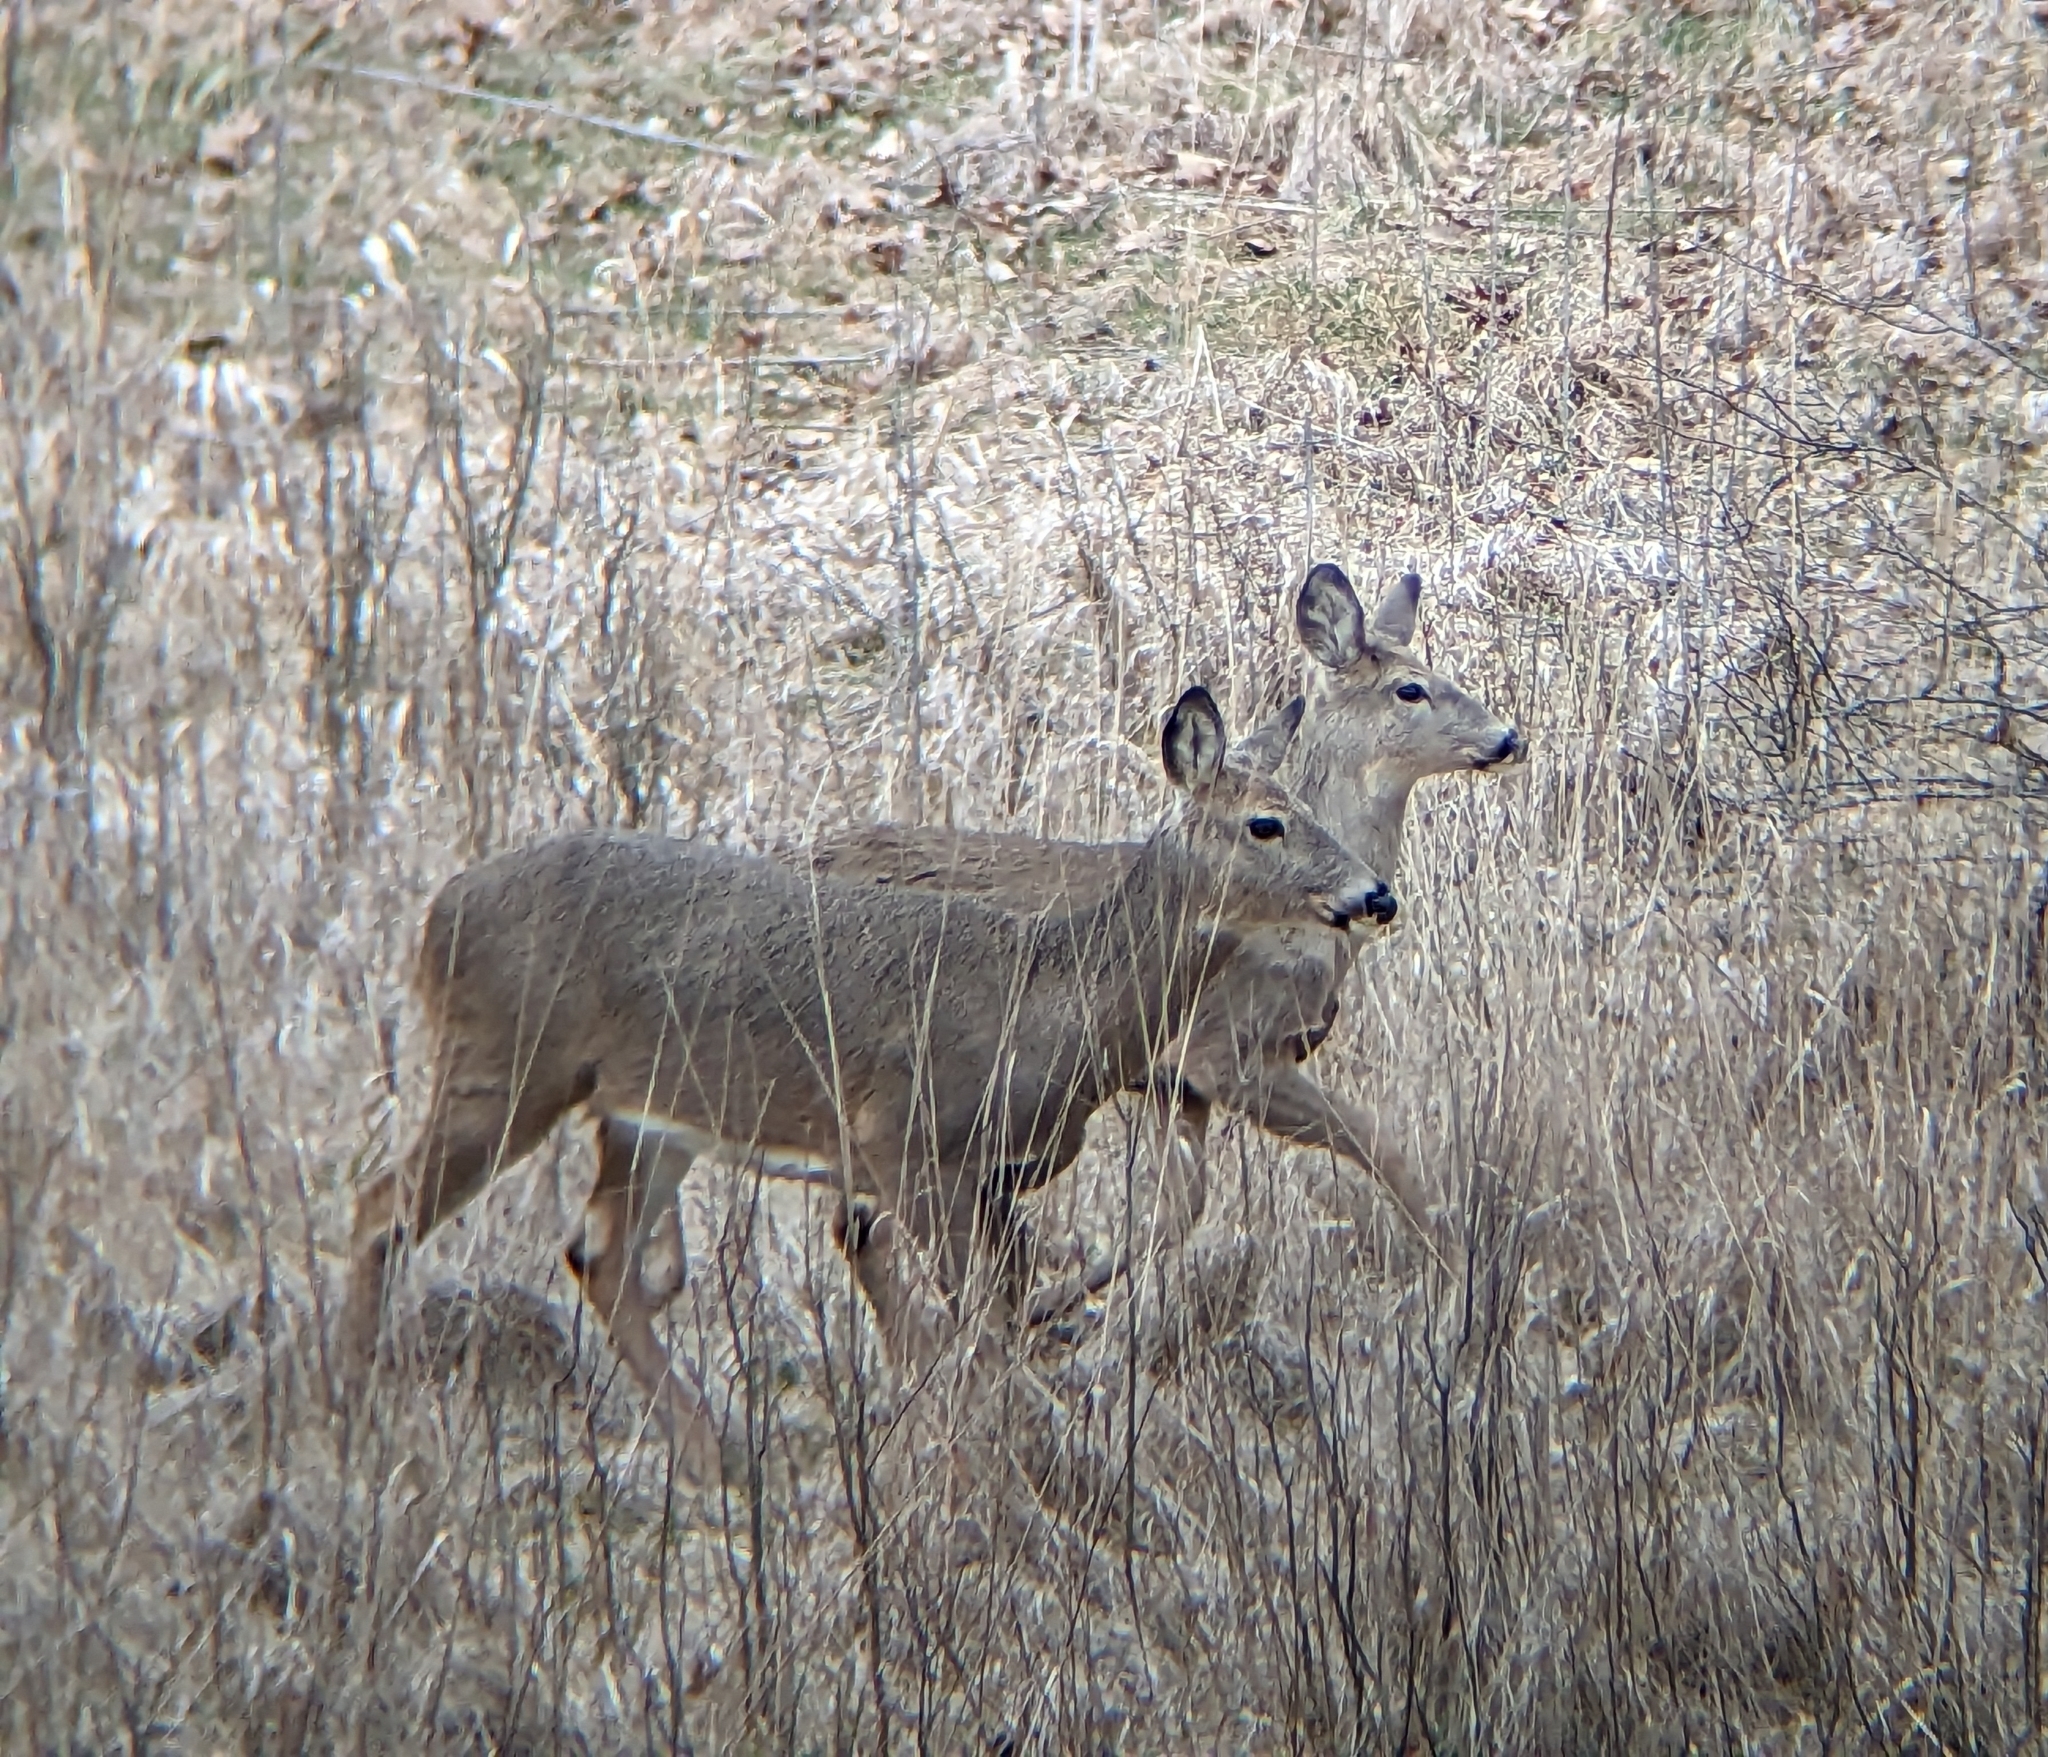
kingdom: Animalia
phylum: Chordata
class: Mammalia
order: Artiodactyla
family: Cervidae
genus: Odocoileus
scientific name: Odocoileus virginianus
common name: White-tailed deer
